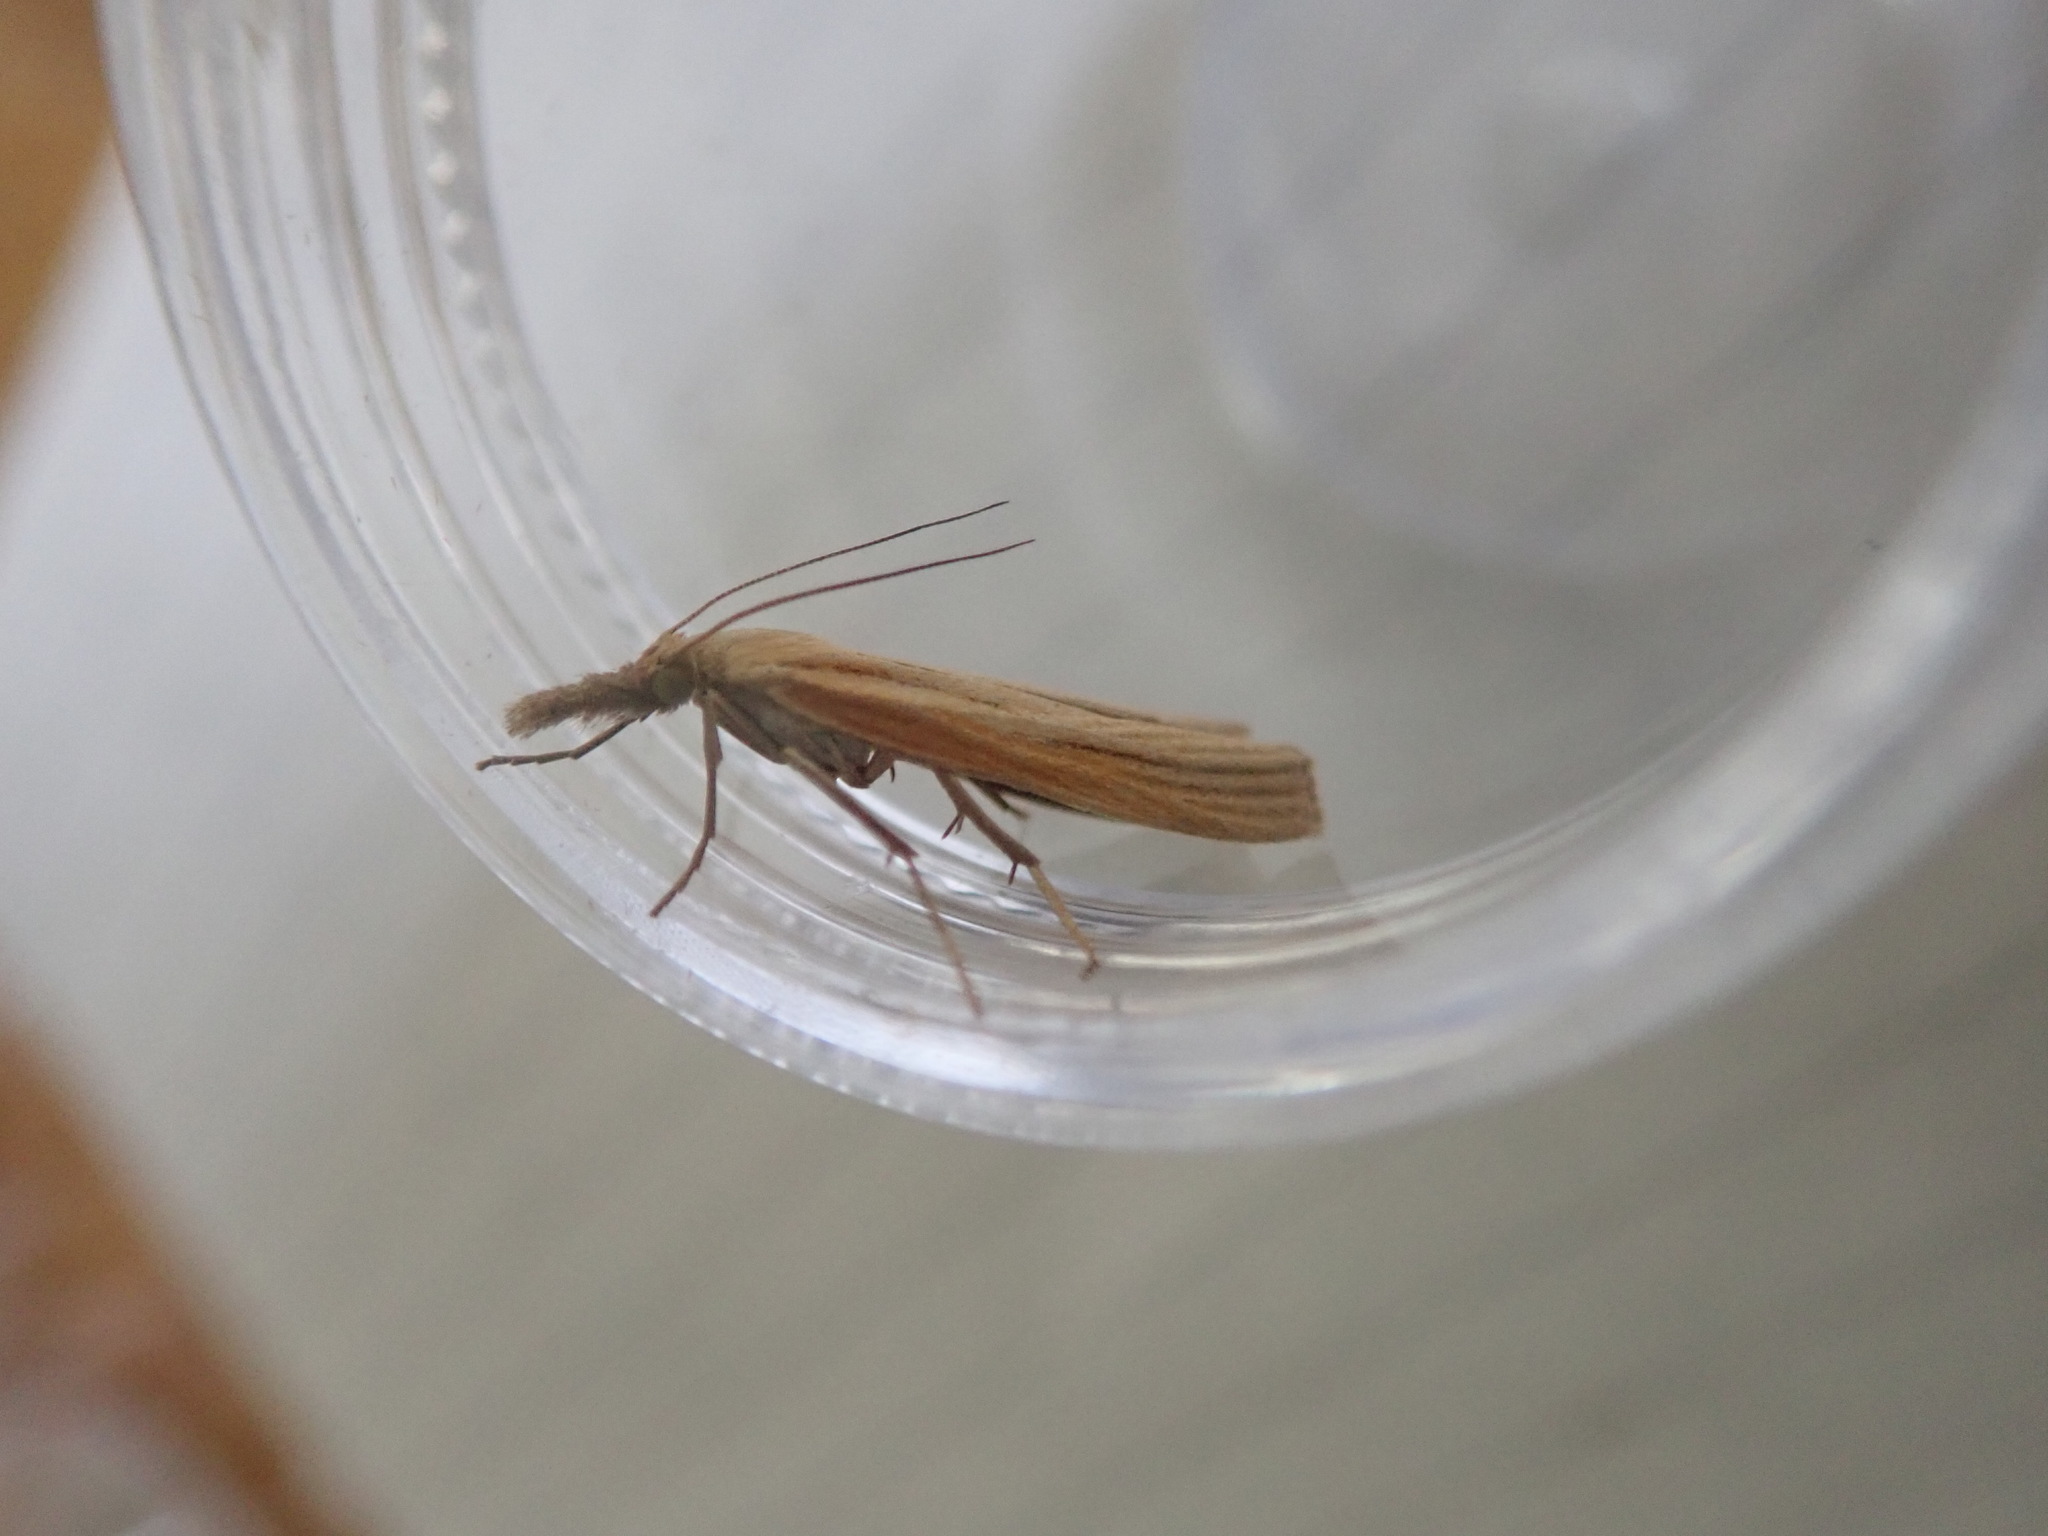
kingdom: Animalia
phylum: Arthropoda
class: Insecta
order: Lepidoptera
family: Crambidae
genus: Agriphila
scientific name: Agriphila tristellus
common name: Common grass-veneer
